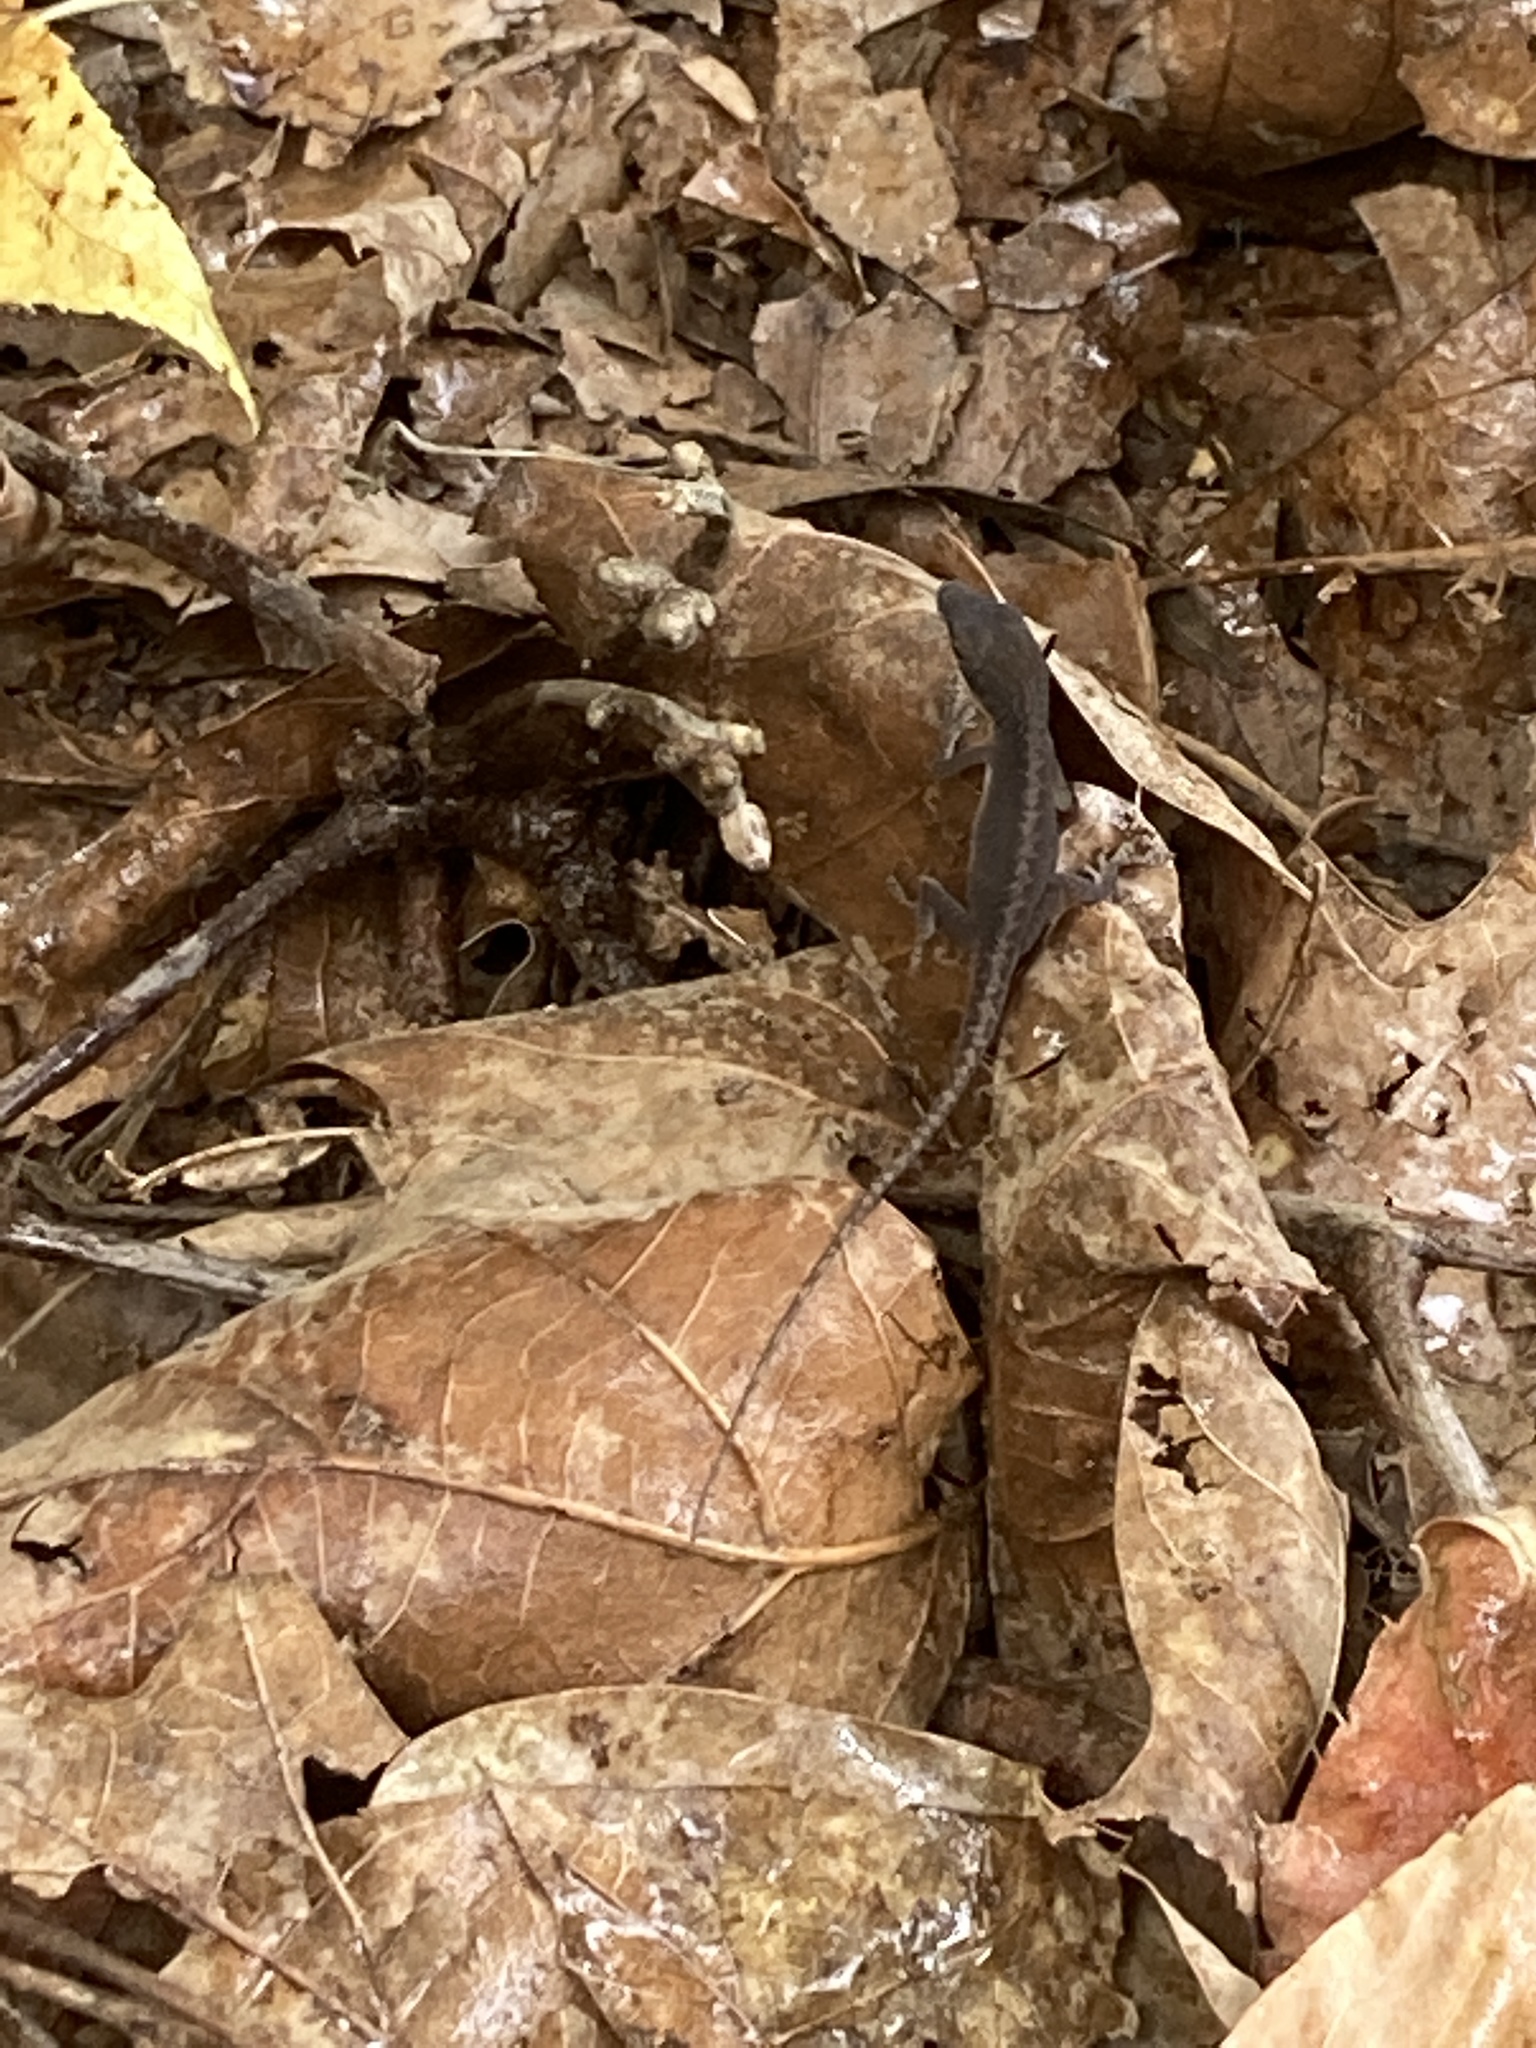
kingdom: Animalia
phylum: Chordata
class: Squamata
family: Dactyloidae
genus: Anolis
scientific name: Anolis carolinensis
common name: Green anole
